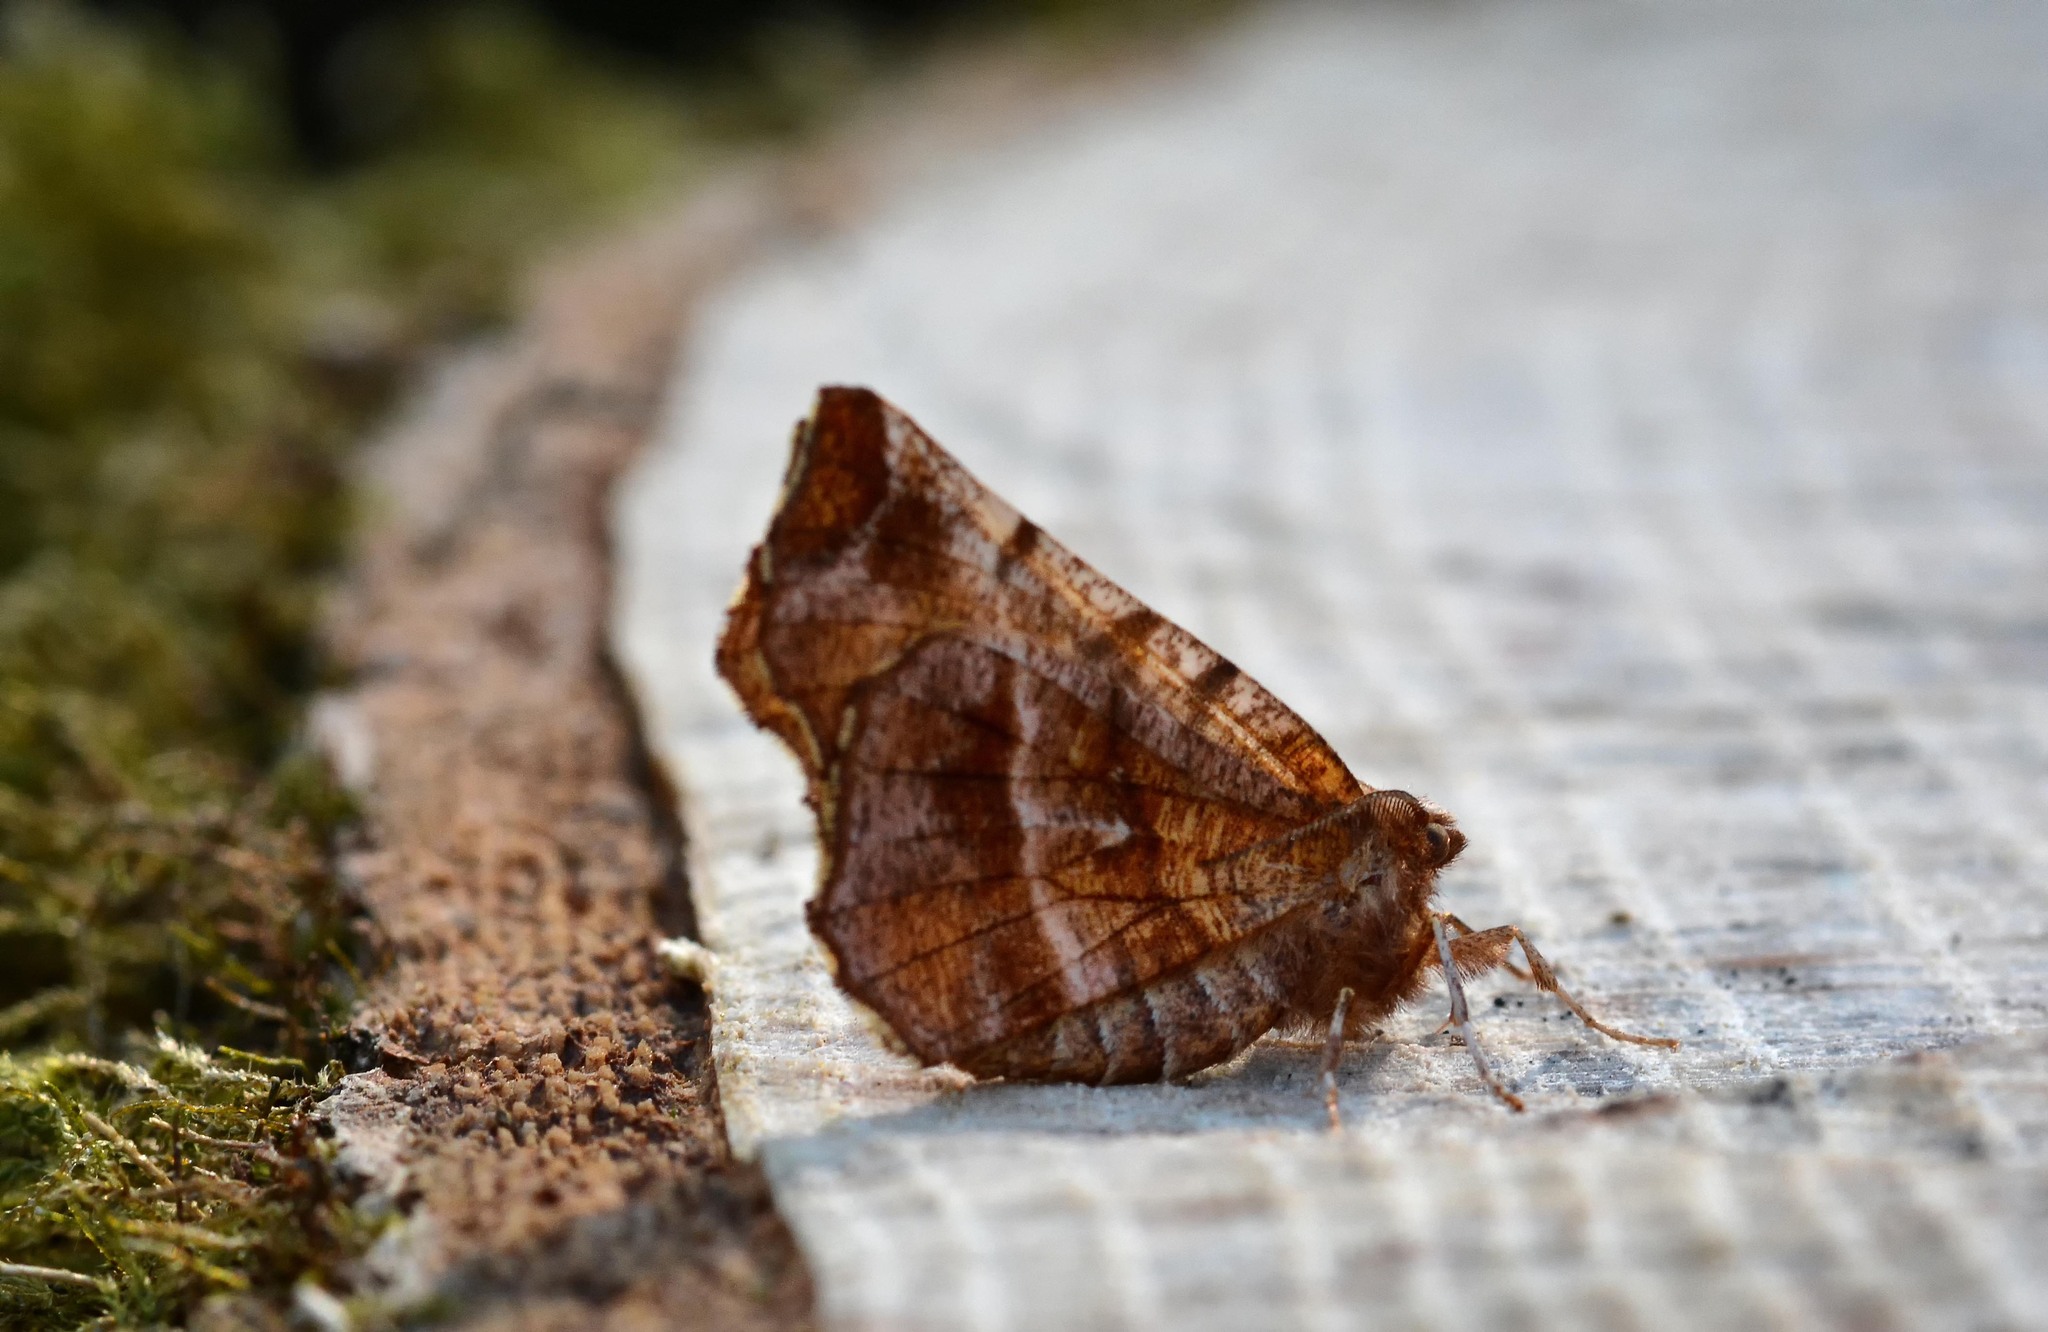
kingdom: Animalia
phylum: Arthropoda
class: Insecta
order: Lepidoptera
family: Geometridae
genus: Selenia
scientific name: Selenia dentaria
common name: Early thorn
